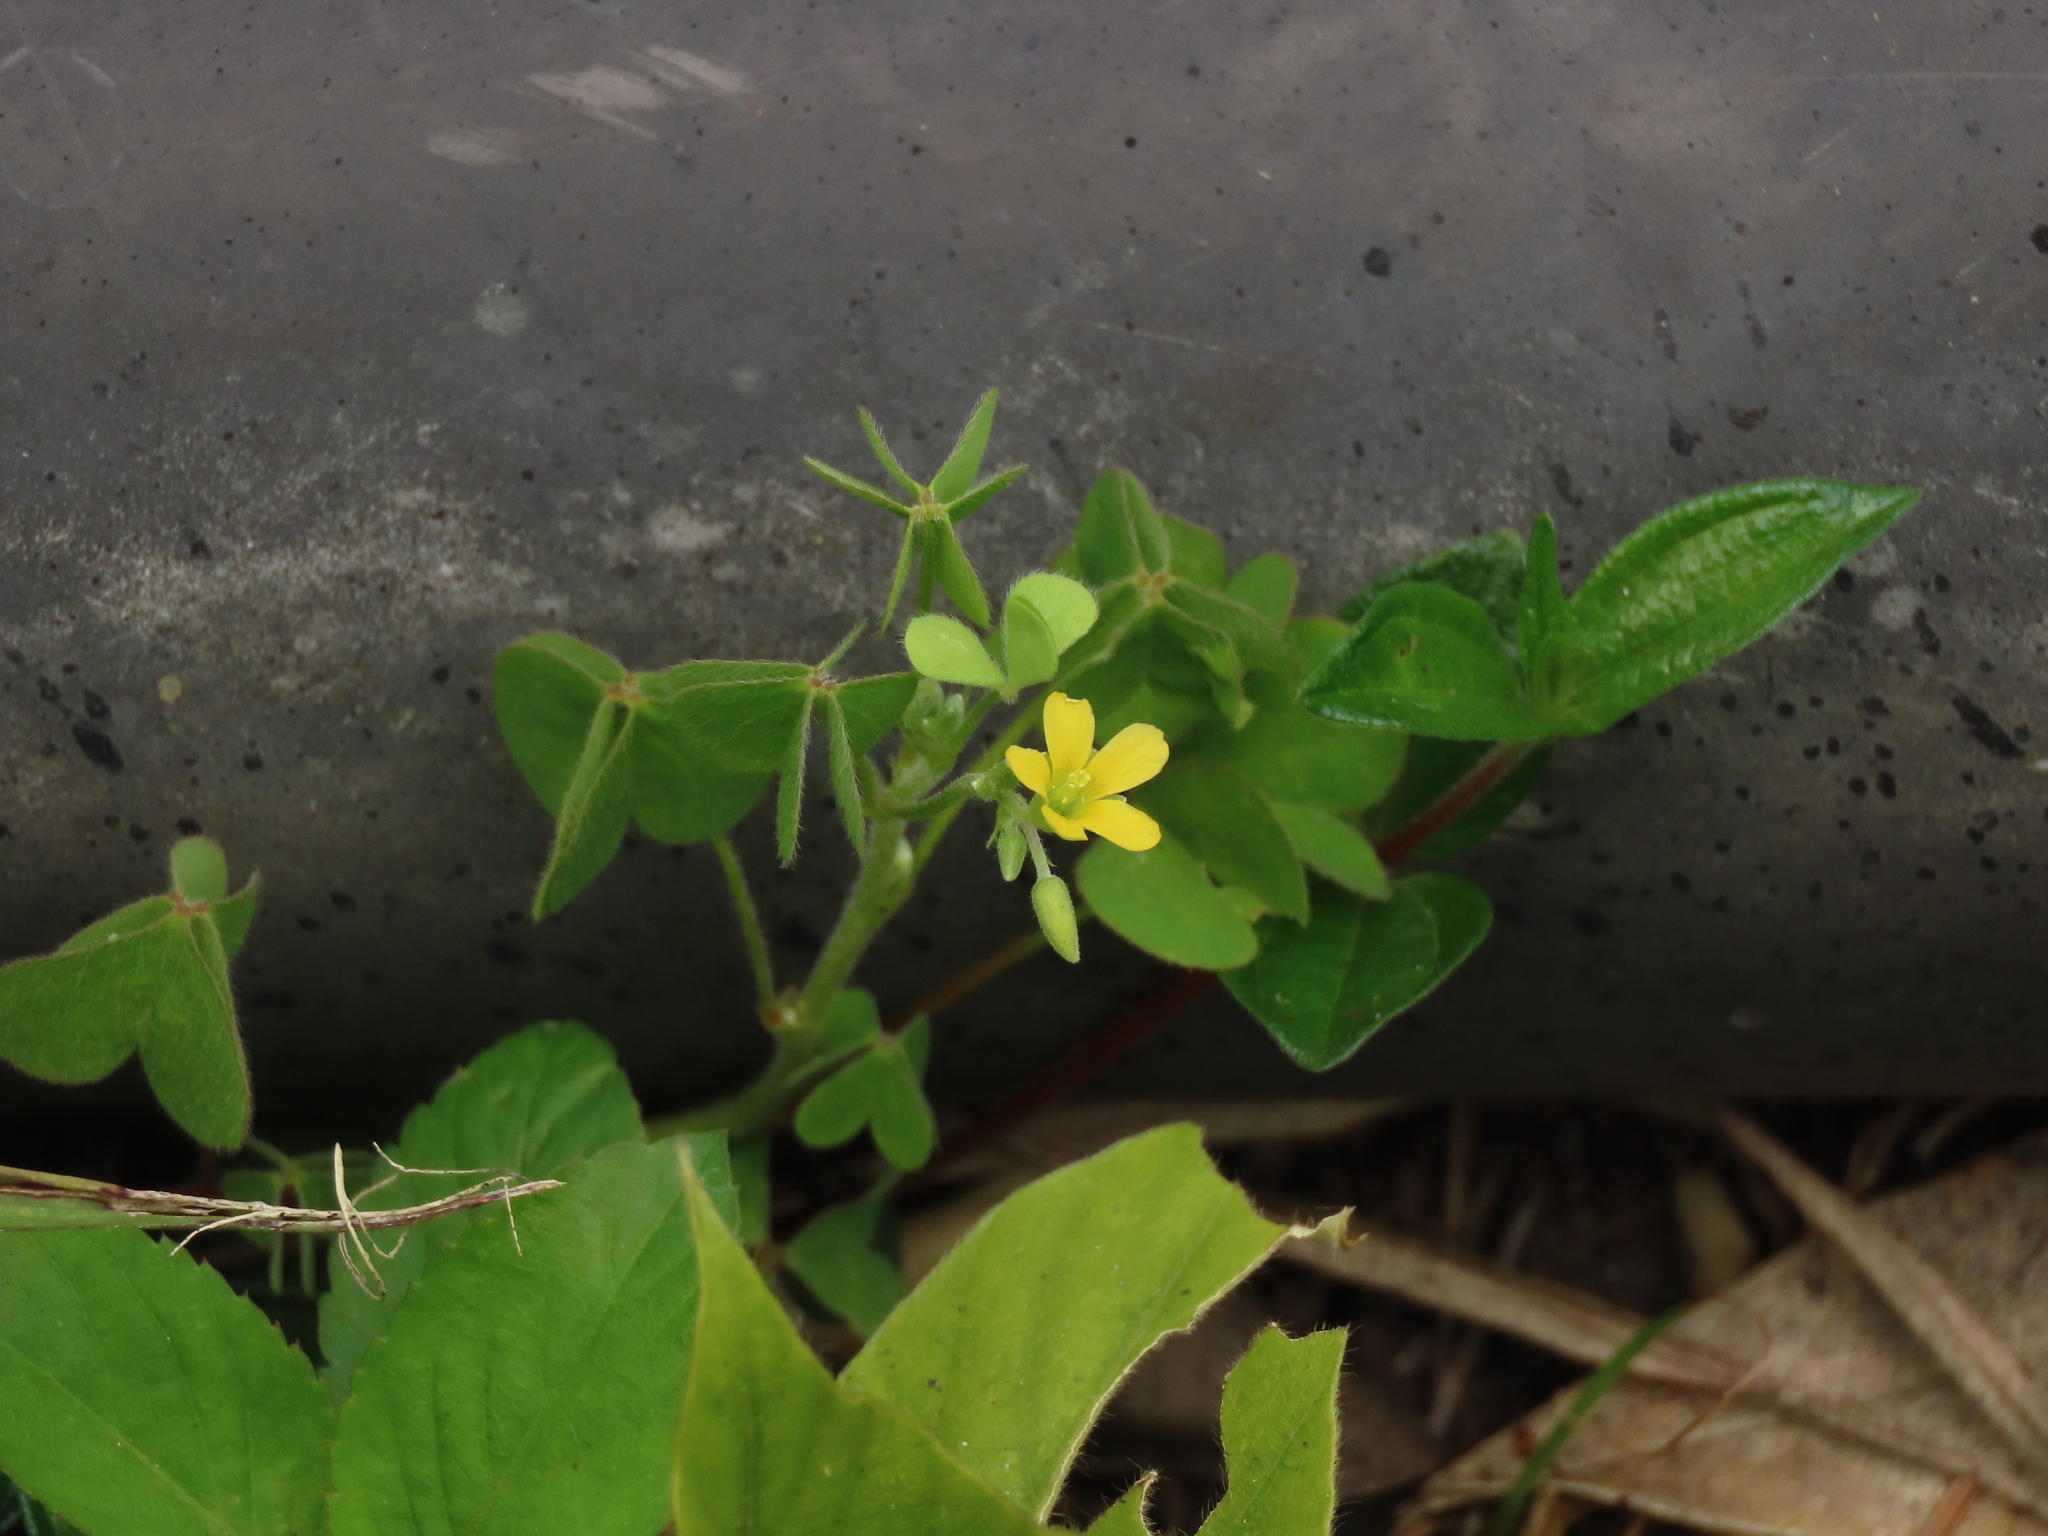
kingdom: Plantae
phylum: Tracheophyta
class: Magnoliopsida
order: Oxalidales
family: Oxalidaceae
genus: Oxalis
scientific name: Oxalis corniculata
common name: Procumbent yellow-sorrel
